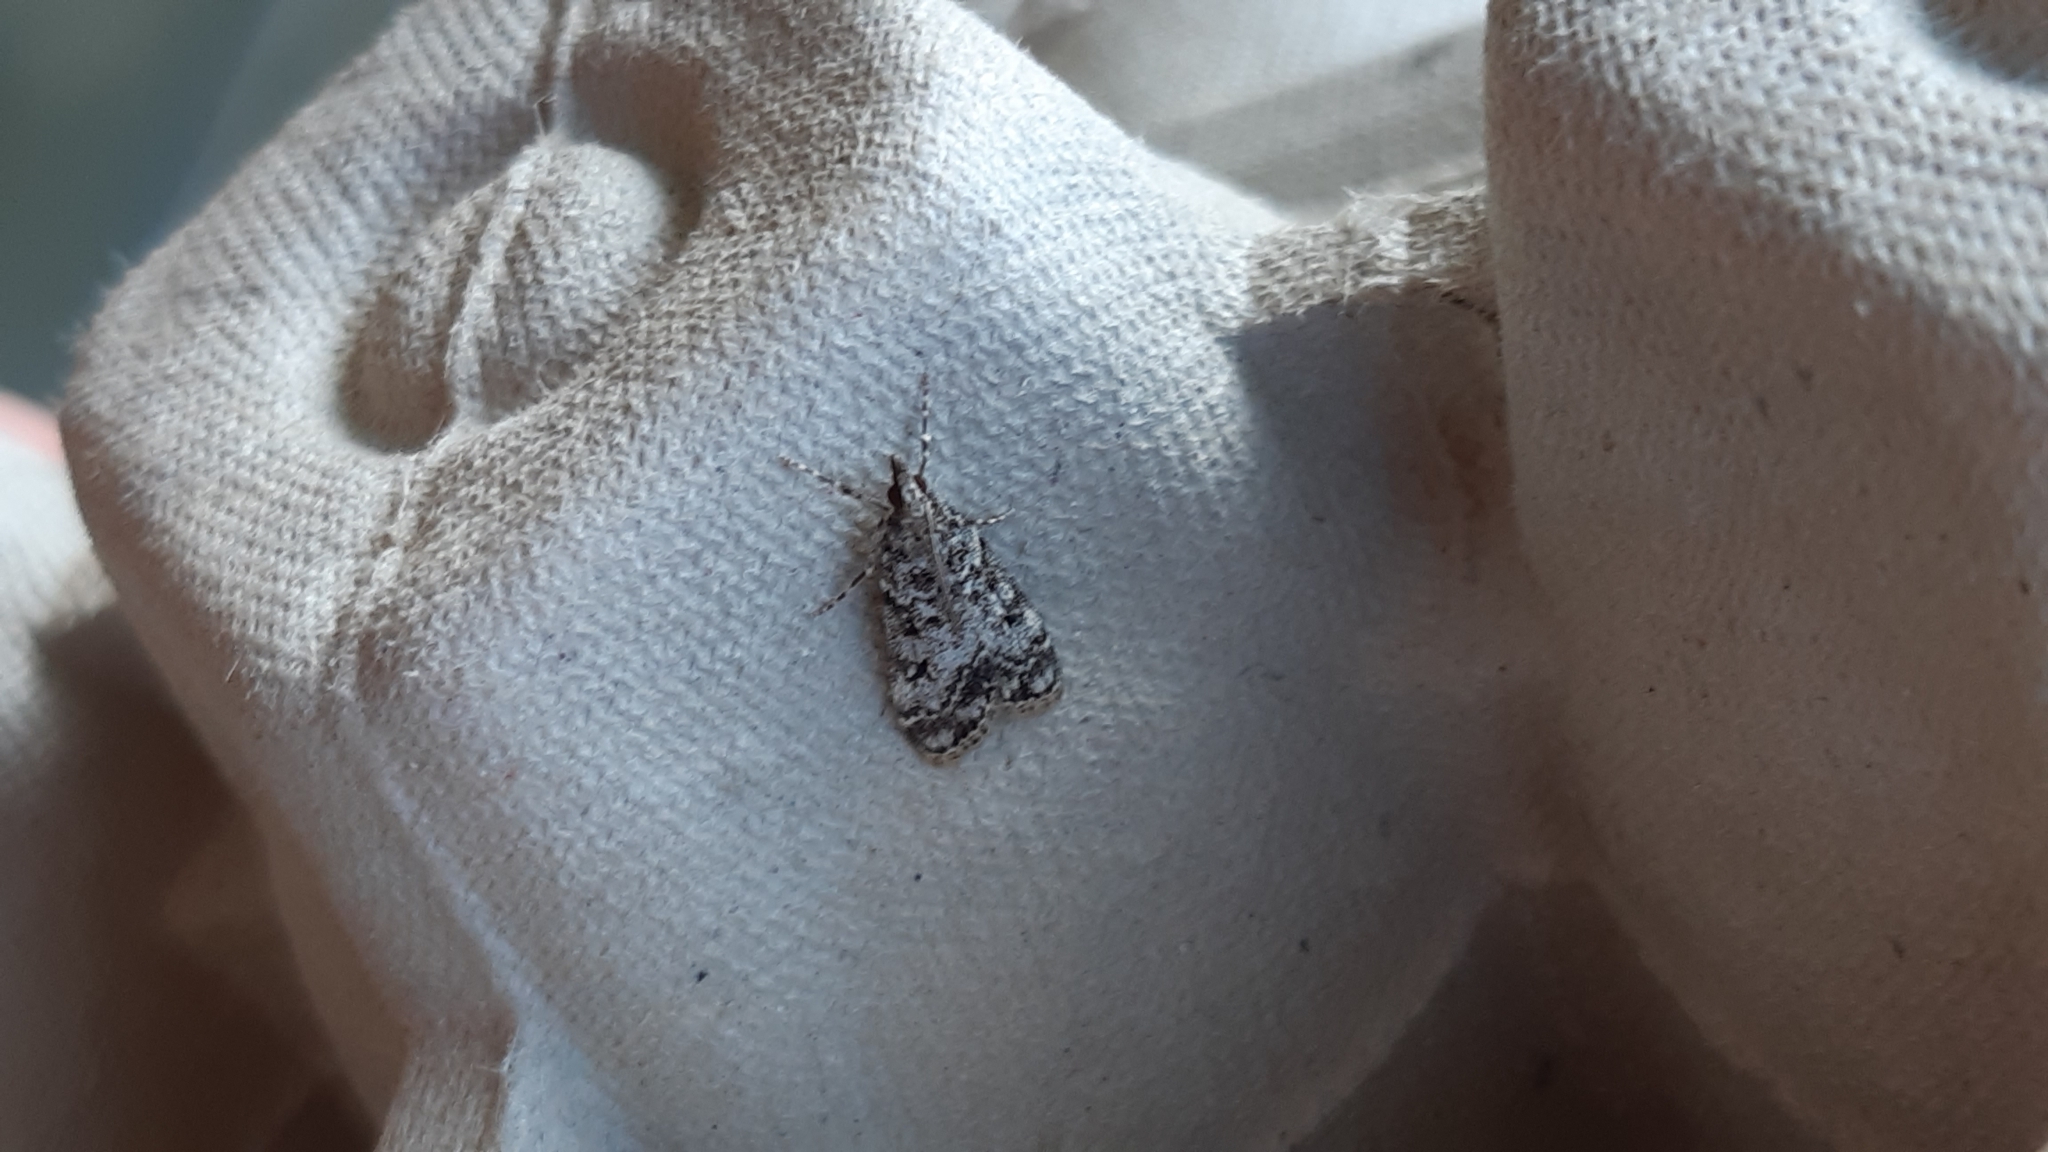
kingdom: Animalia
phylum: Arthropoda
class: Insecta
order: Lepidoptera
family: Crambidae
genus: Eudonia
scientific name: Eudonia lacustrata
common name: Little grey
